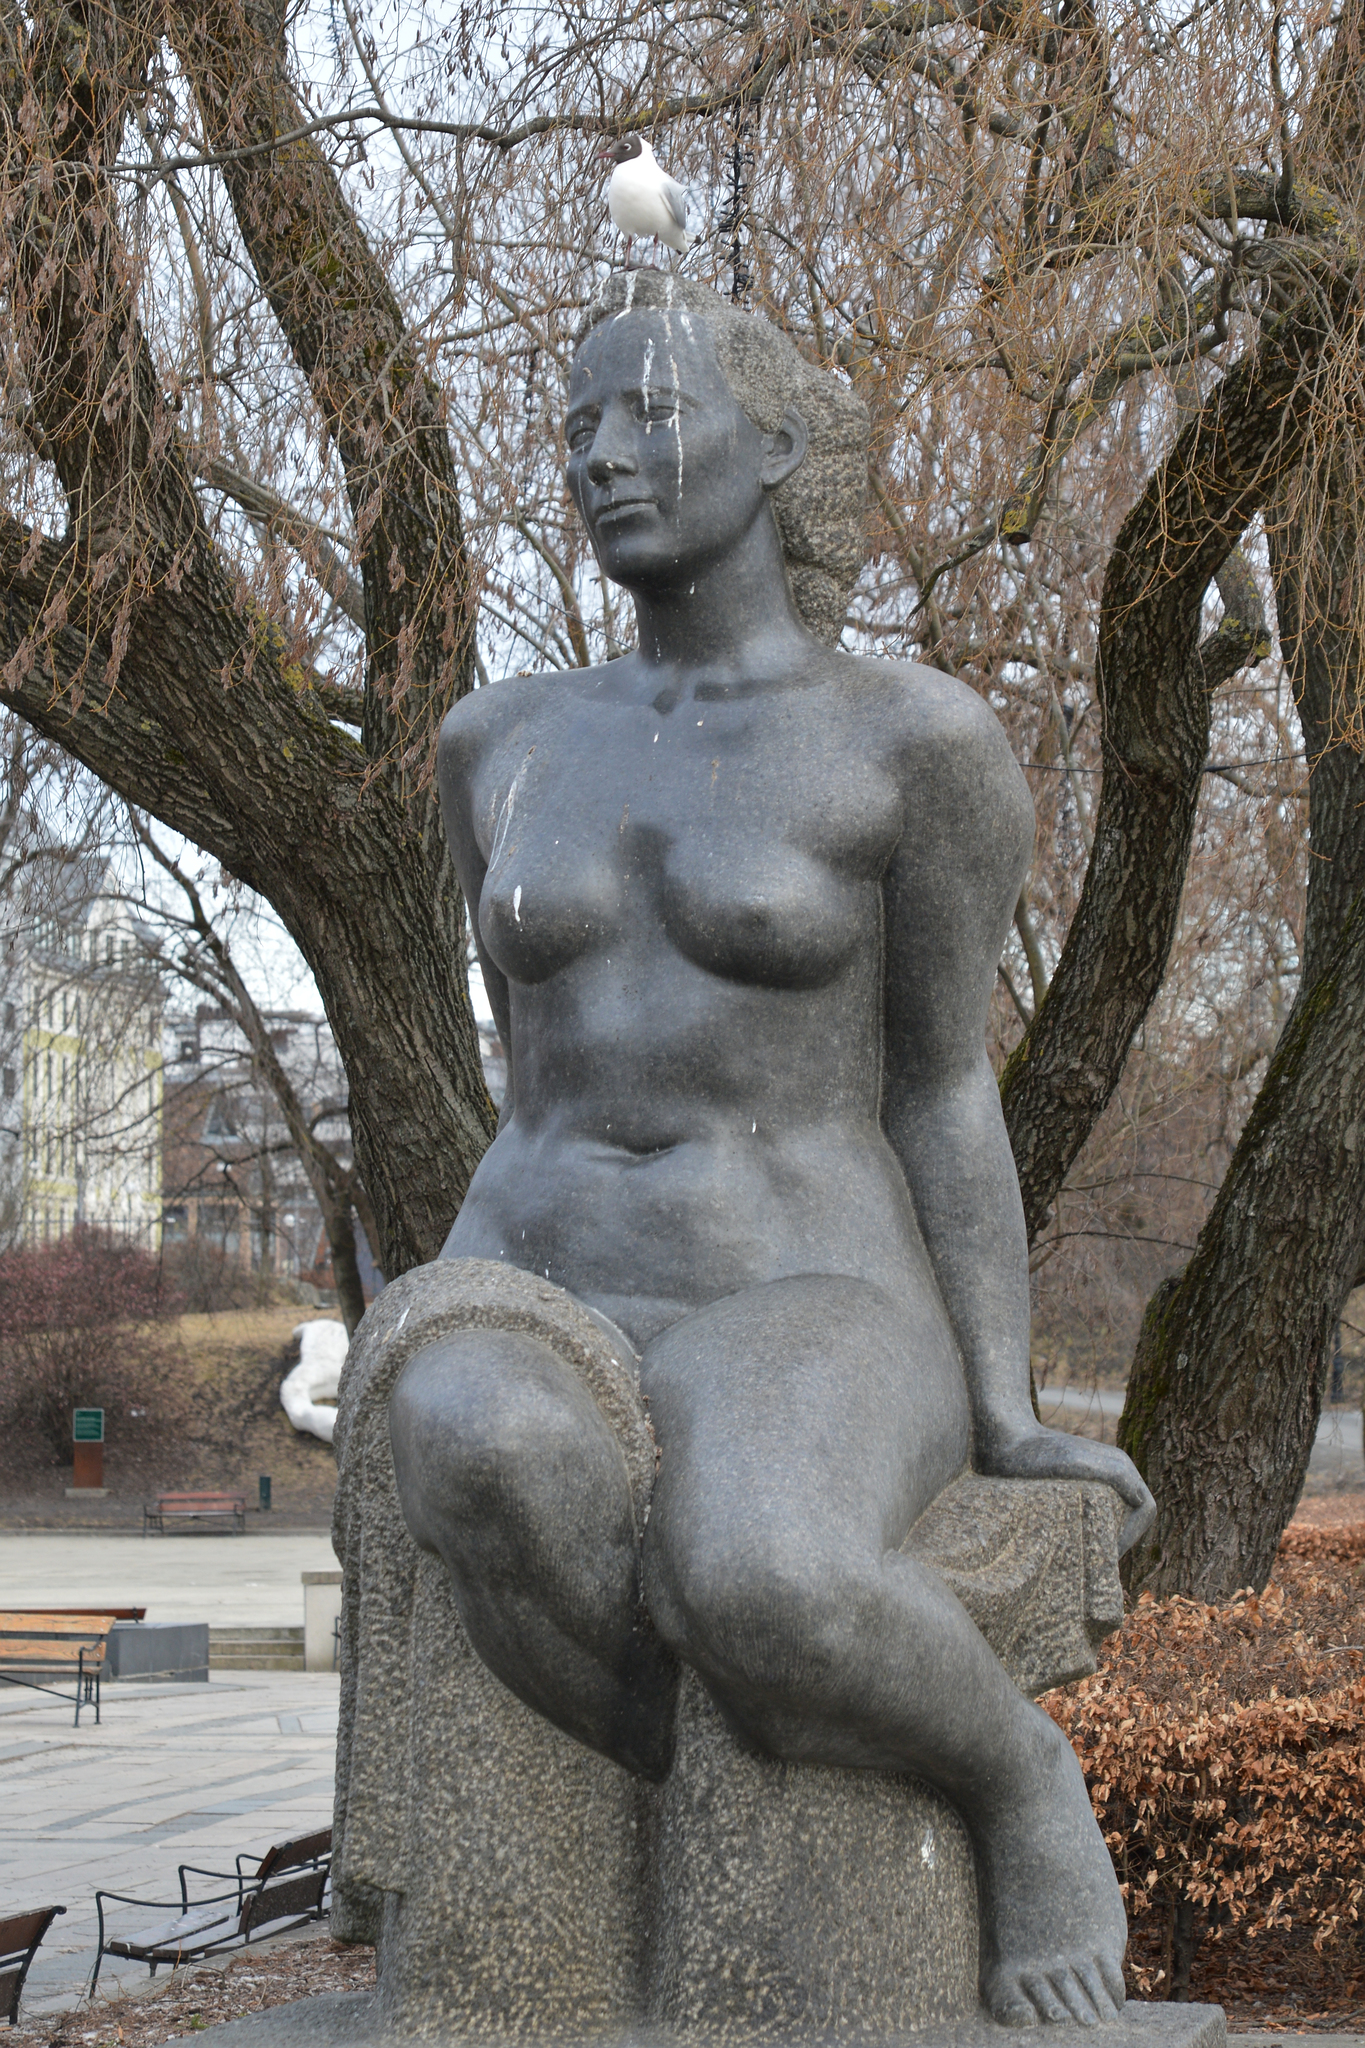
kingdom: Animalia
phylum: Chordata
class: Aves
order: Charadriiformes
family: Laridae
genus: Chroicocephalus
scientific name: Chroicocephalus ridibundus
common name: Black-headed gull
